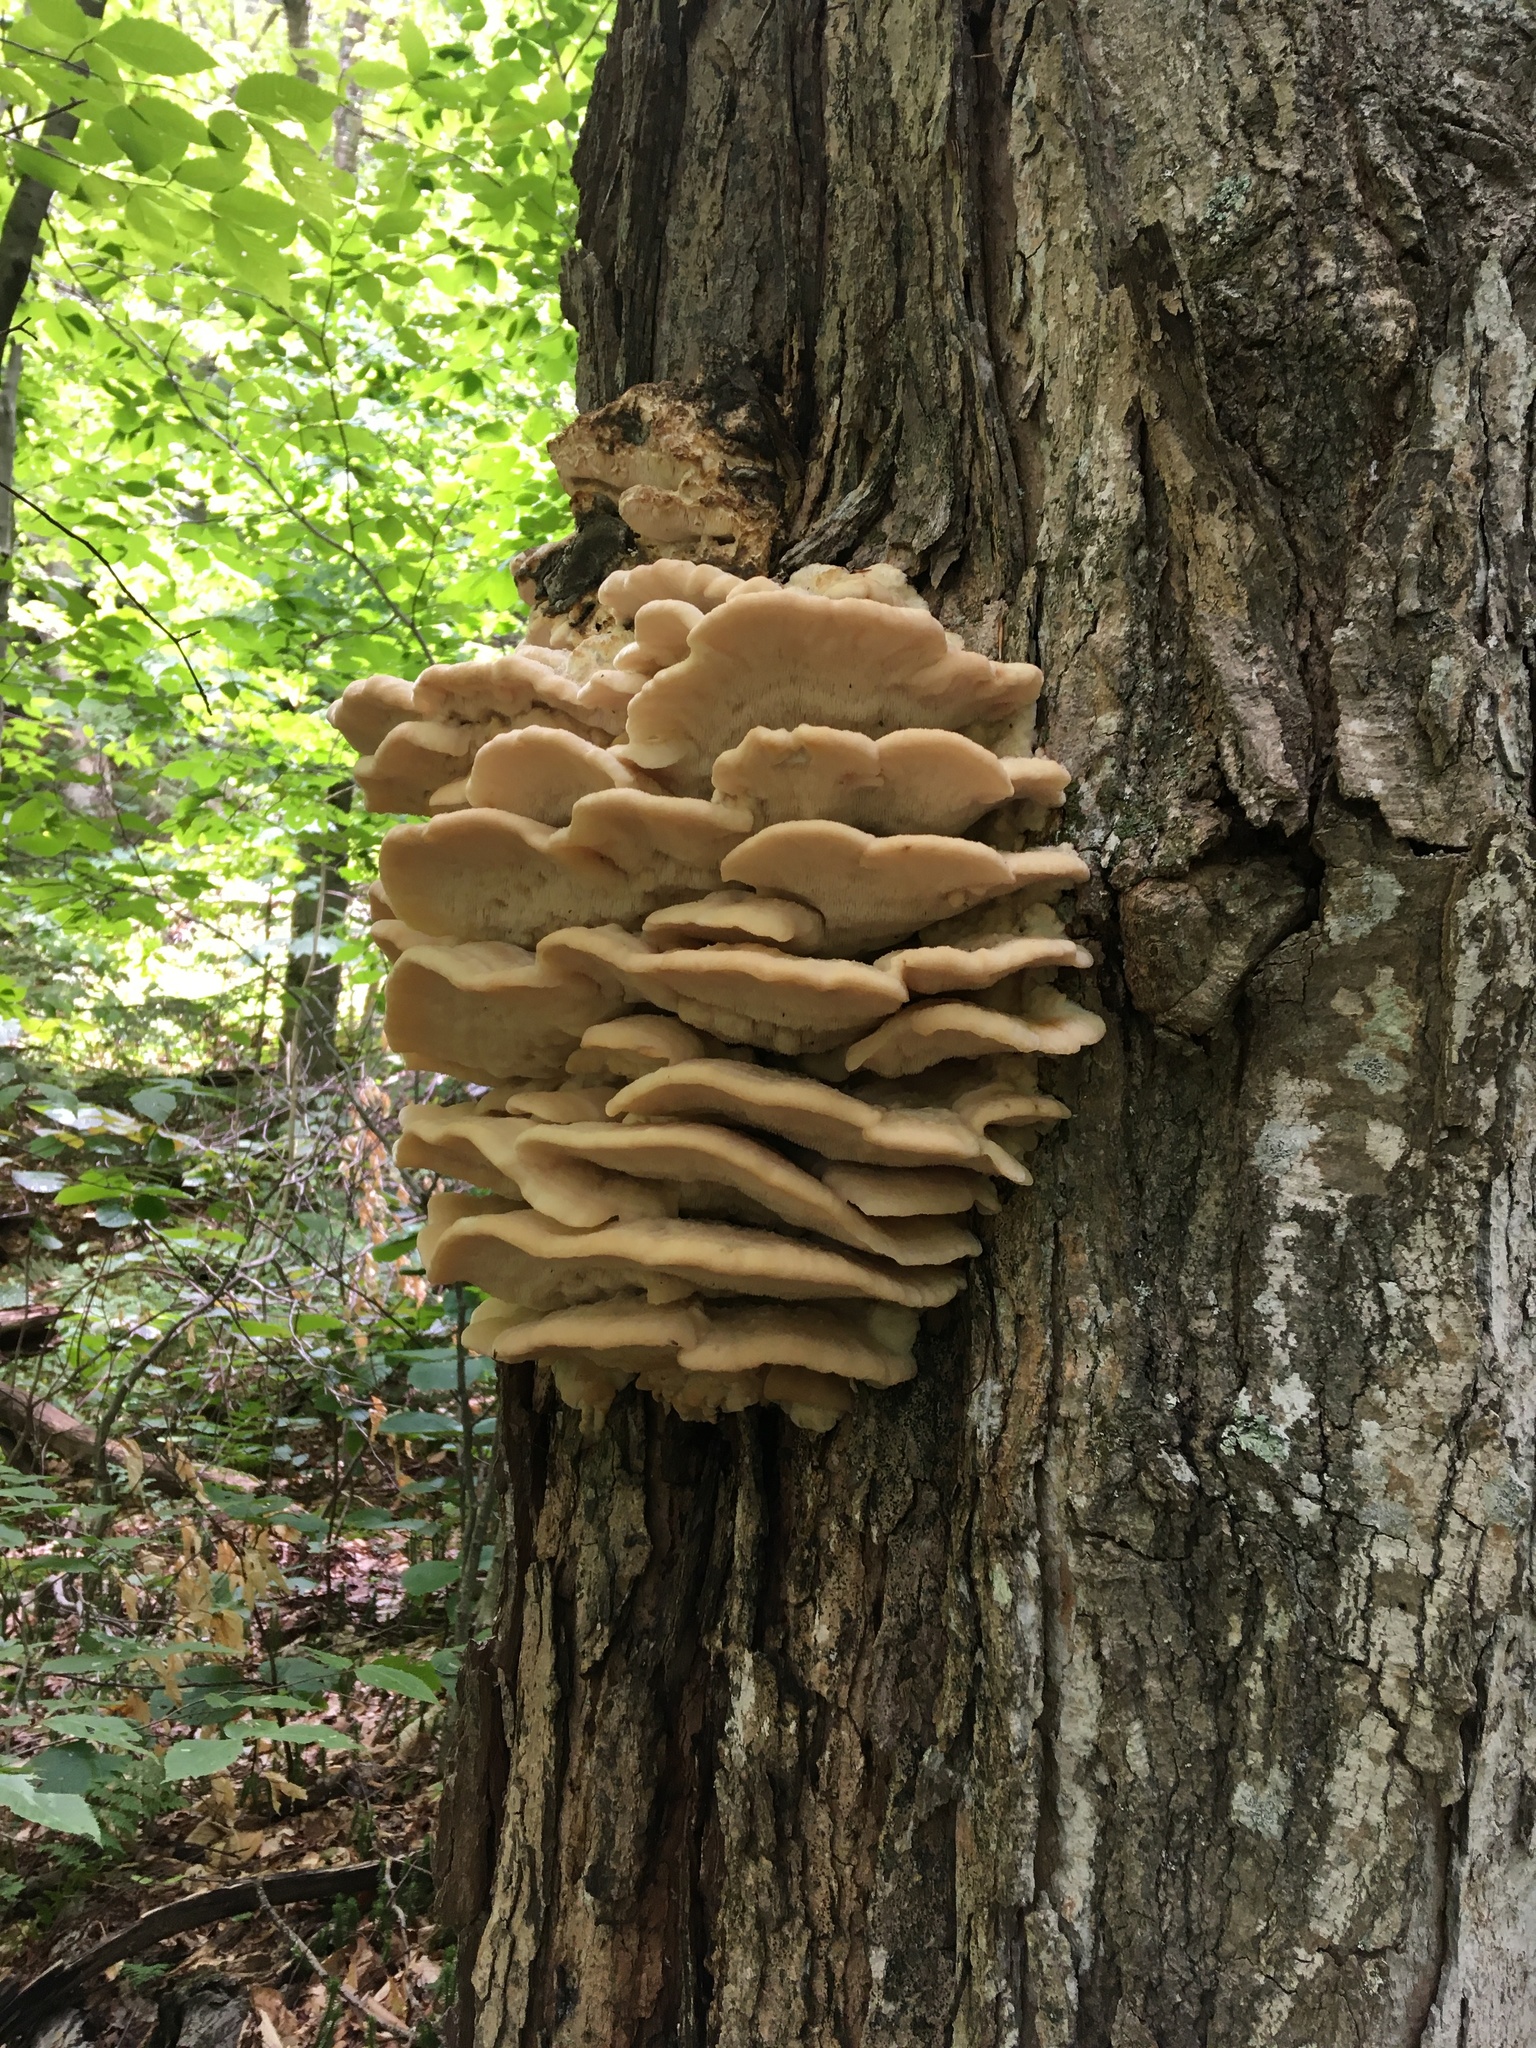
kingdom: Fungi
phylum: Basidiomycota
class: Agaricomycetes
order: Polyporales
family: Meruliaceae
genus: Climacodon
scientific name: Climacodon septentrionalis
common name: Northern tooth
